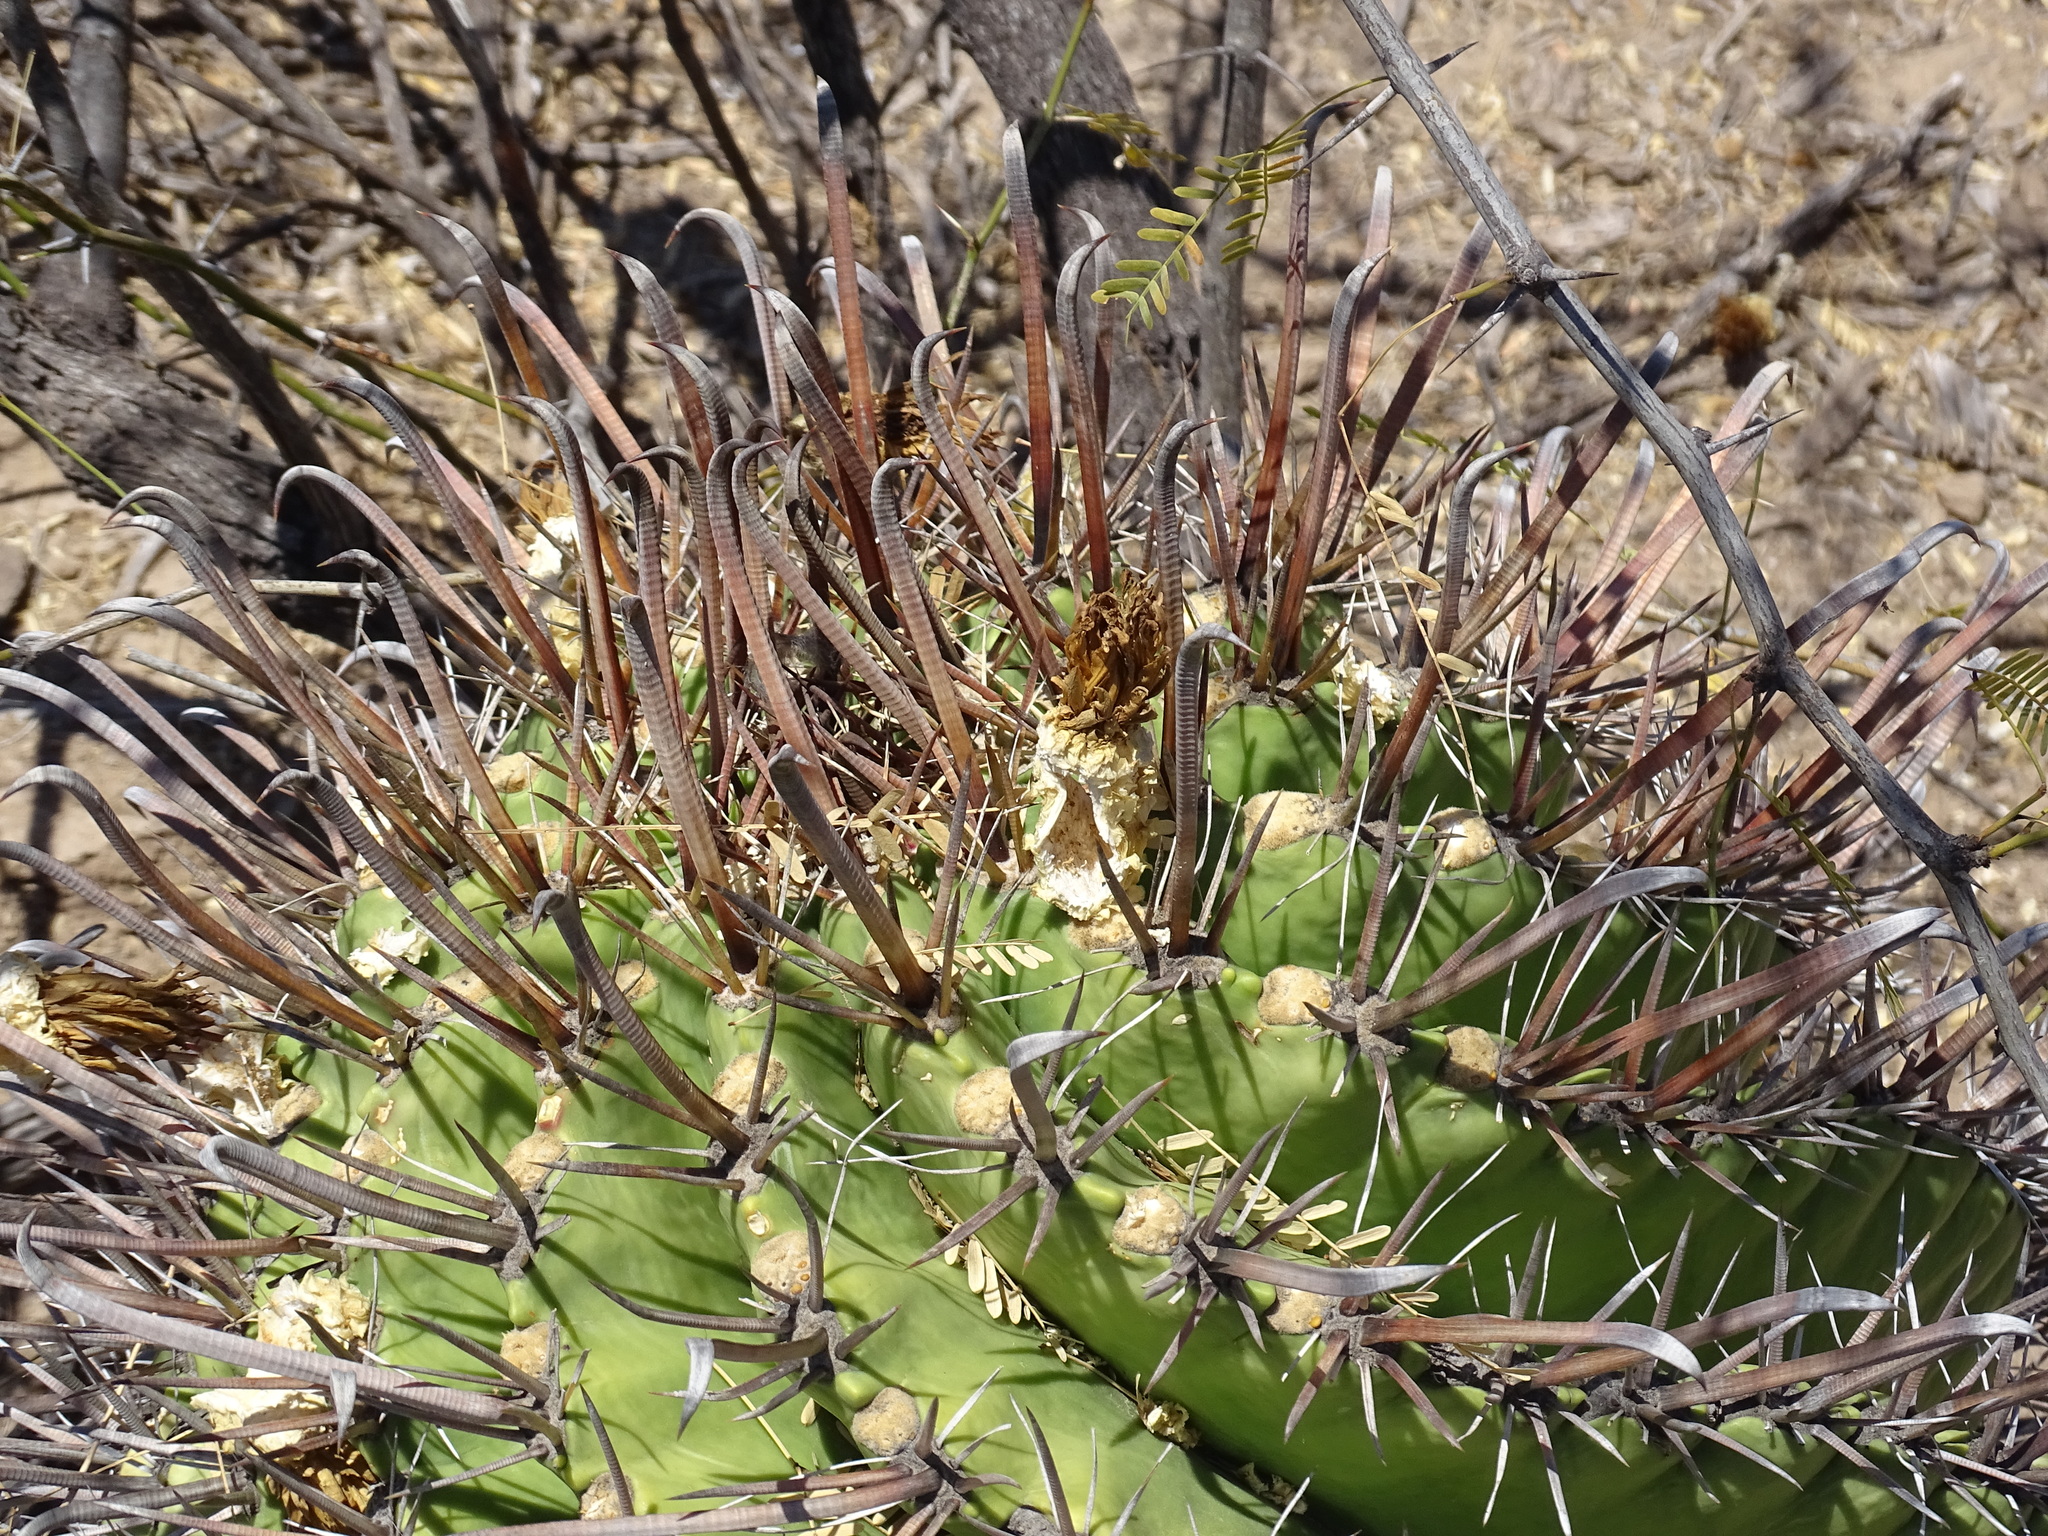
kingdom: Plantae
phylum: Tracheophyta
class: Magnoliopsida
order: Caryophyllales
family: Cactaceae
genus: Ferocactus
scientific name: Ferocactus wislizeni
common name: Candy barrel cactus
